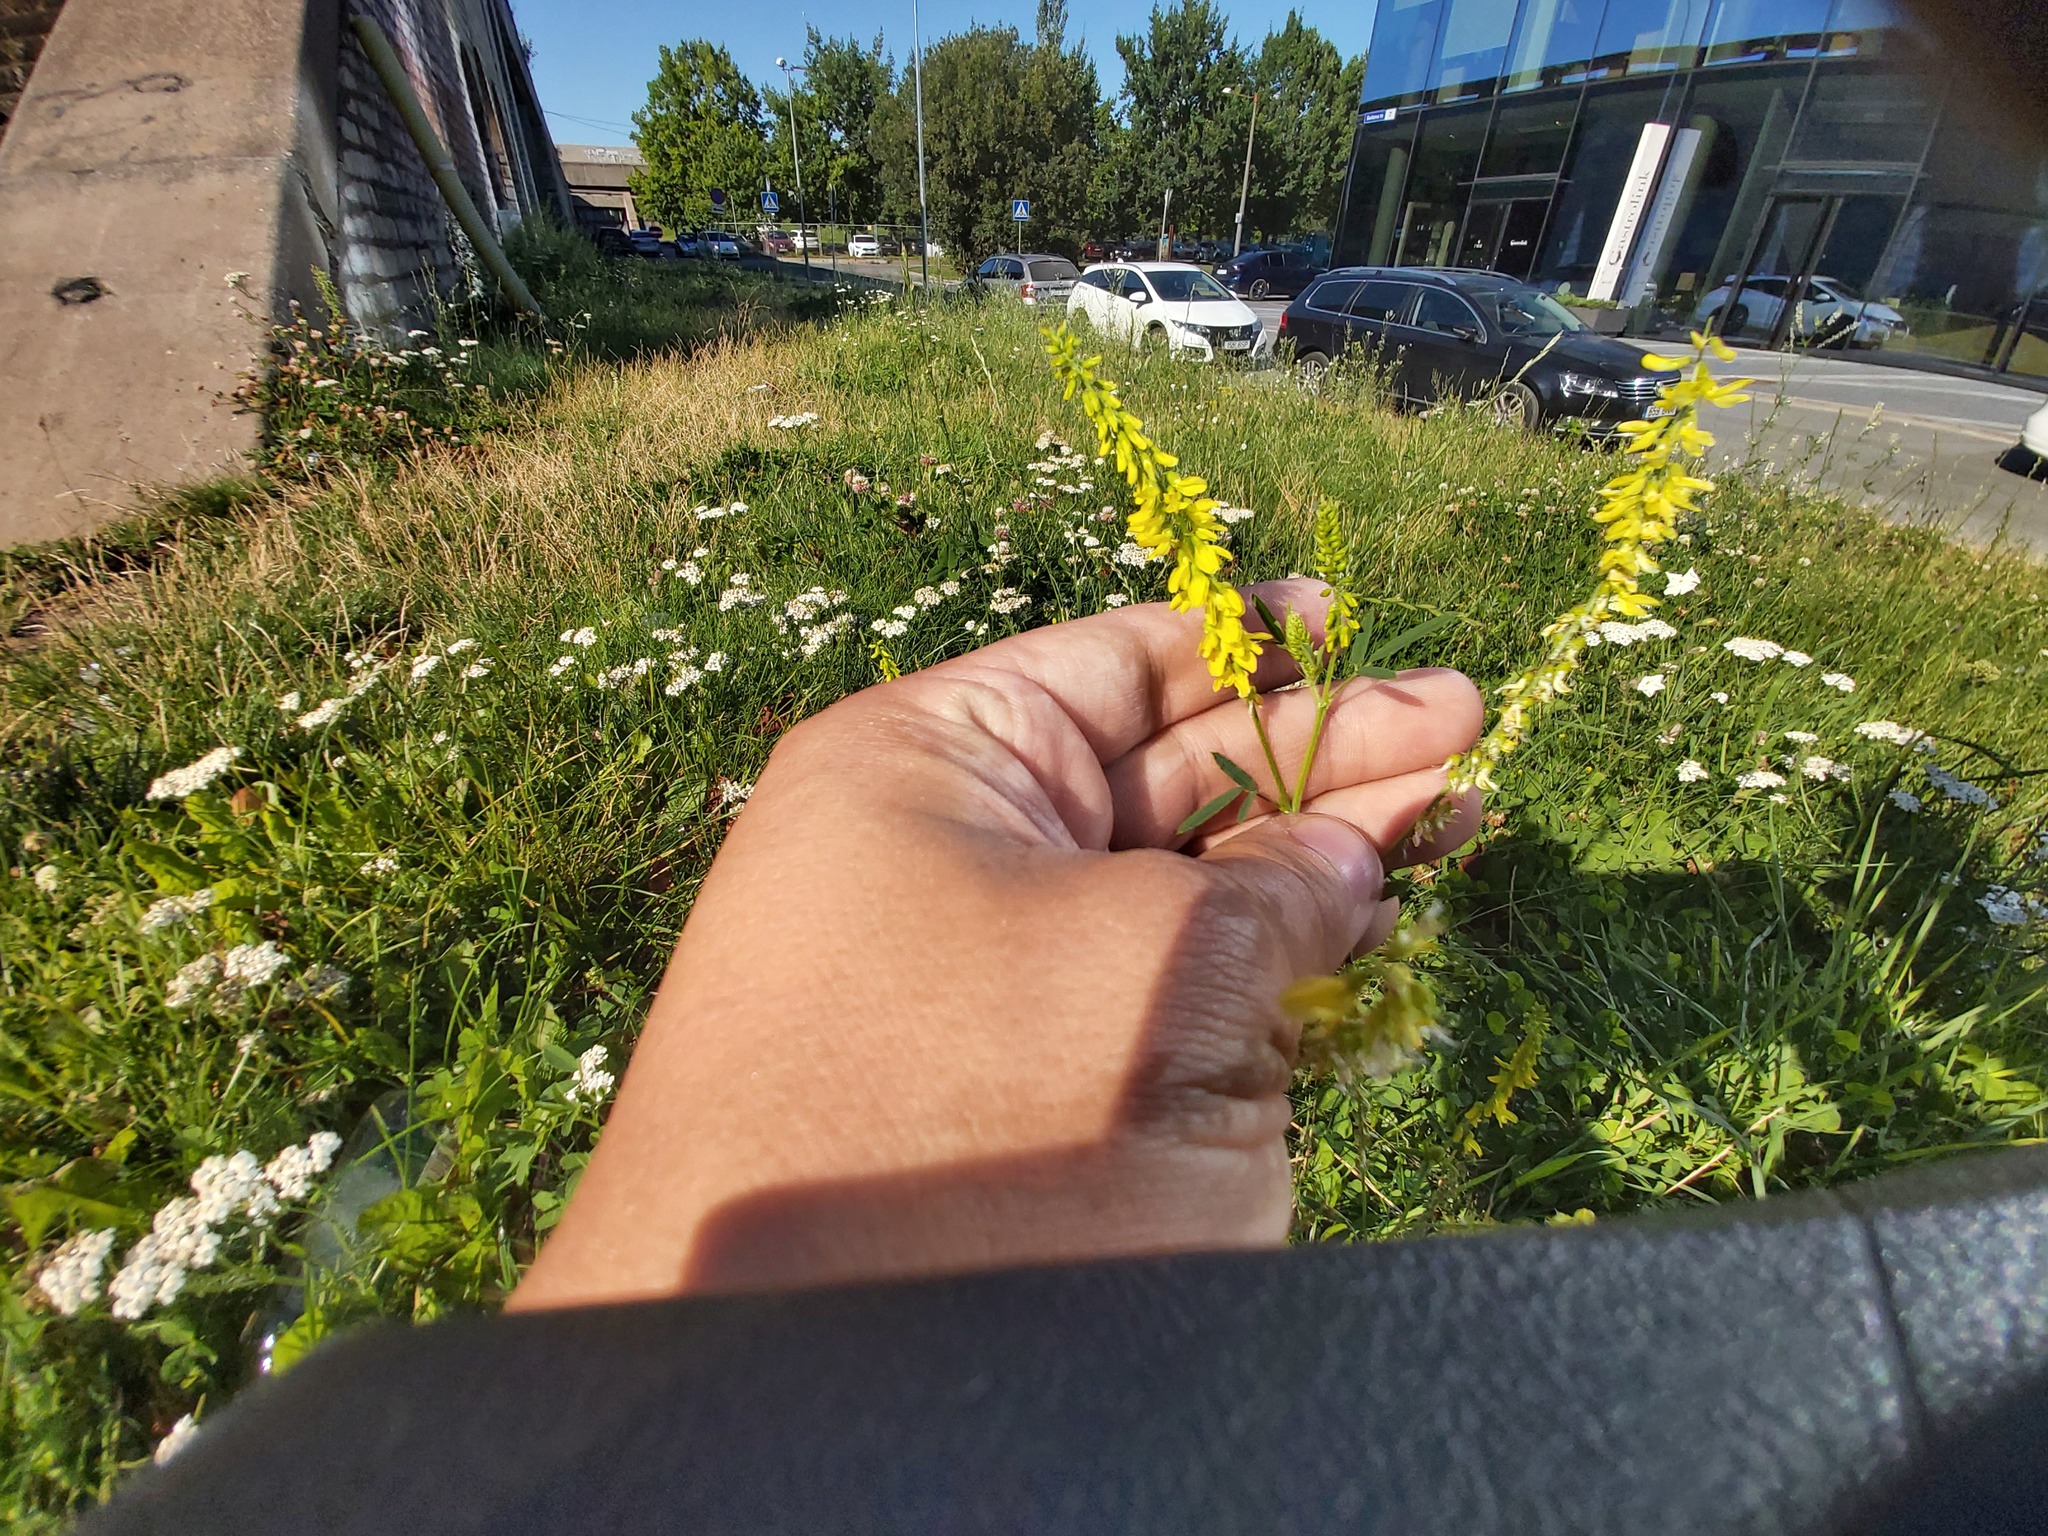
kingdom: Plantae
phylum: Tracheophyta
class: Magnoliopsida
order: Fabales
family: Fabaceae
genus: Melilotus
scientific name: Melilotus officinalis
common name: Sweetclover
